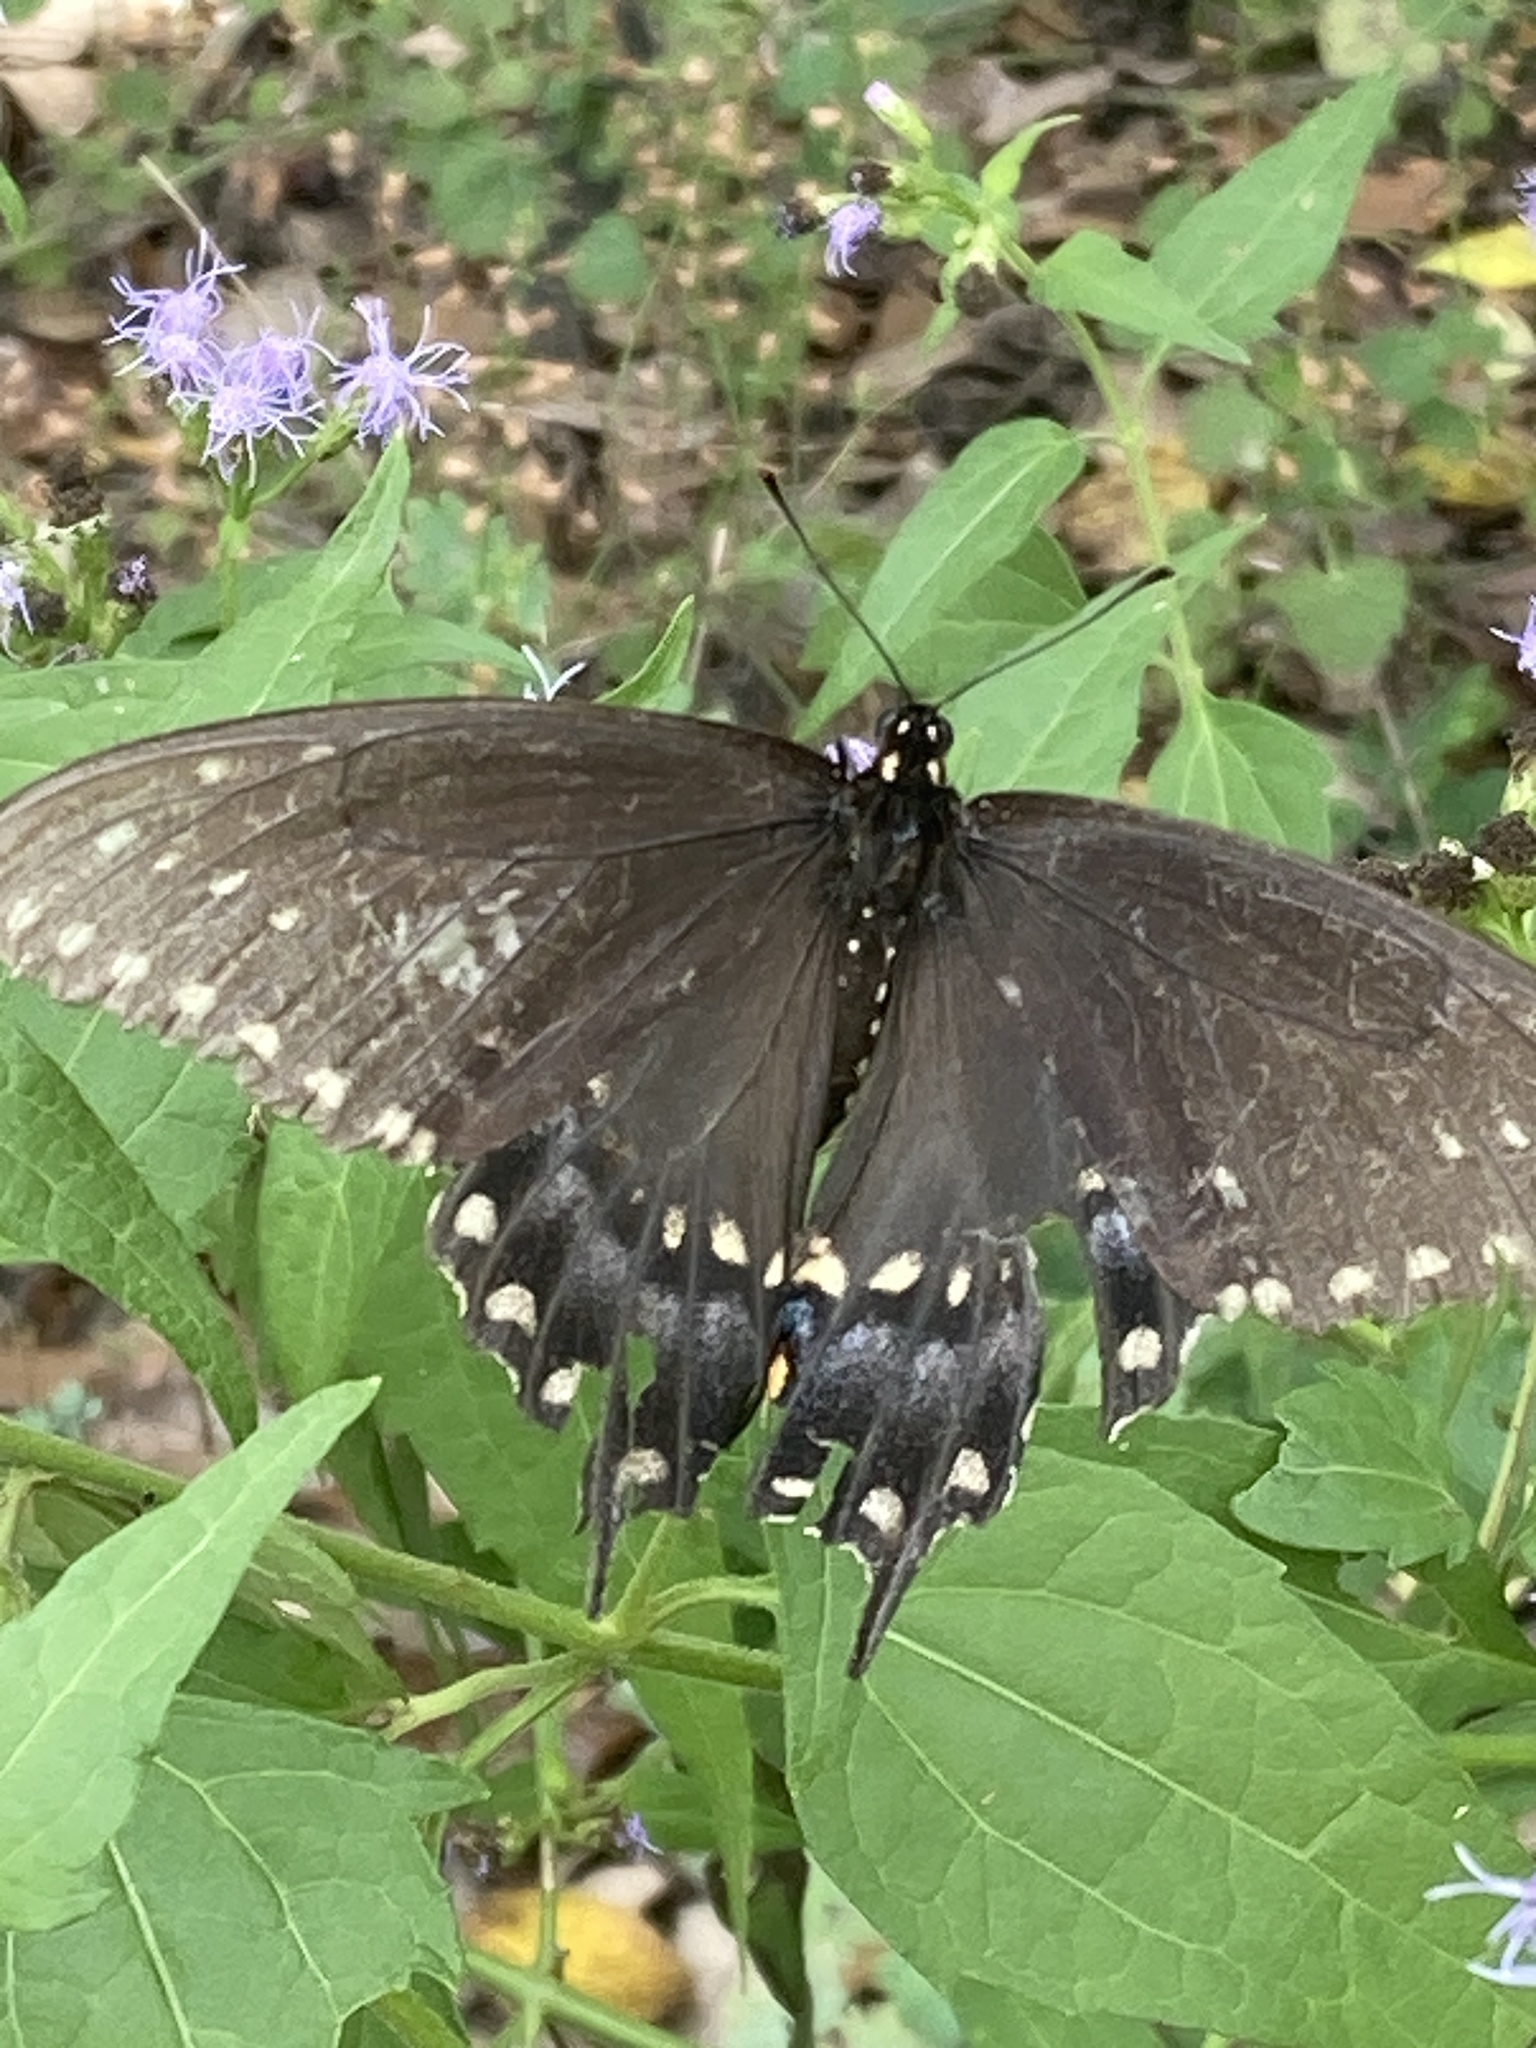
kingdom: Animalia
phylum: Arthropoda
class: Insecta
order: Lepidoptera
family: Papilionidae
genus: Papilio
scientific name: Papilio polyxenes
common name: Black swallowtail
